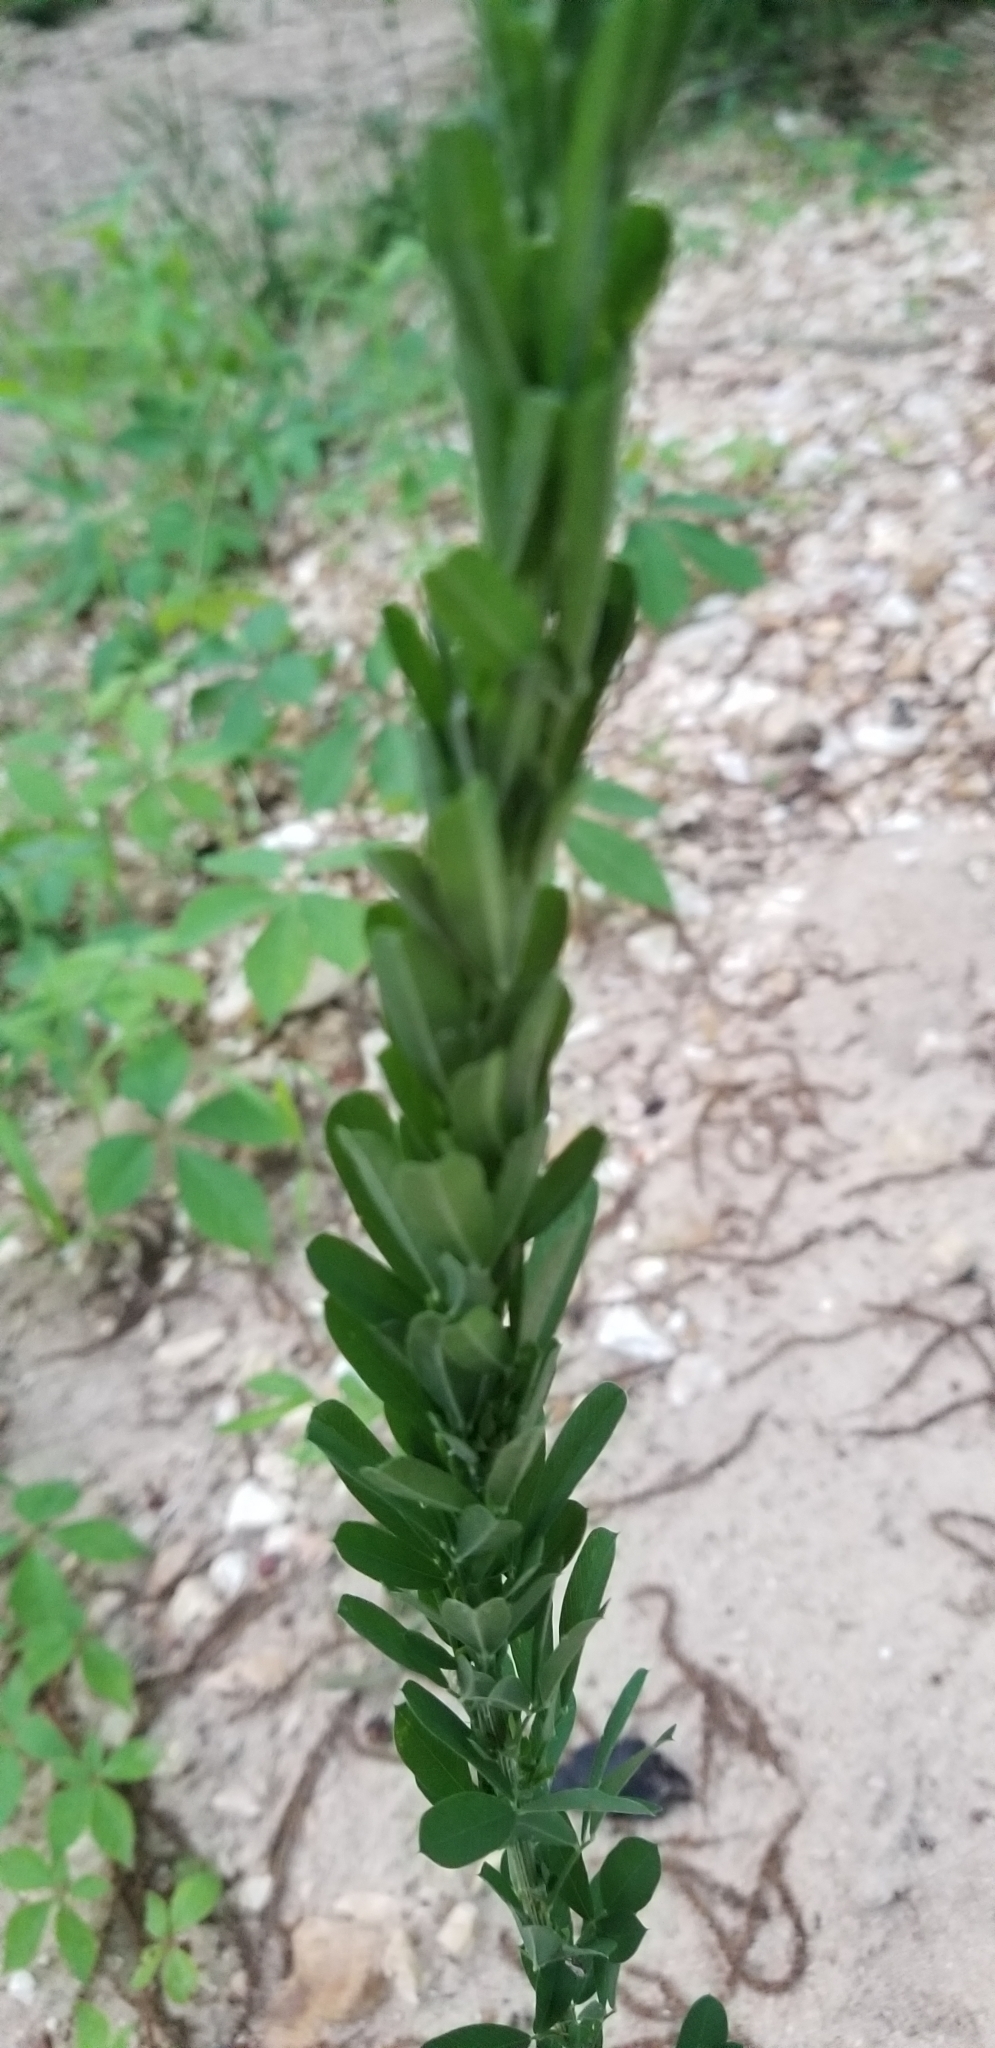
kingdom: Plantae
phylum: Tracheophyta
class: Magnoliopsida
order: Fabales
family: Fabaceae
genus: Lespedeza
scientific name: Lespedeza cuneata
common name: Chinese bush-clover
